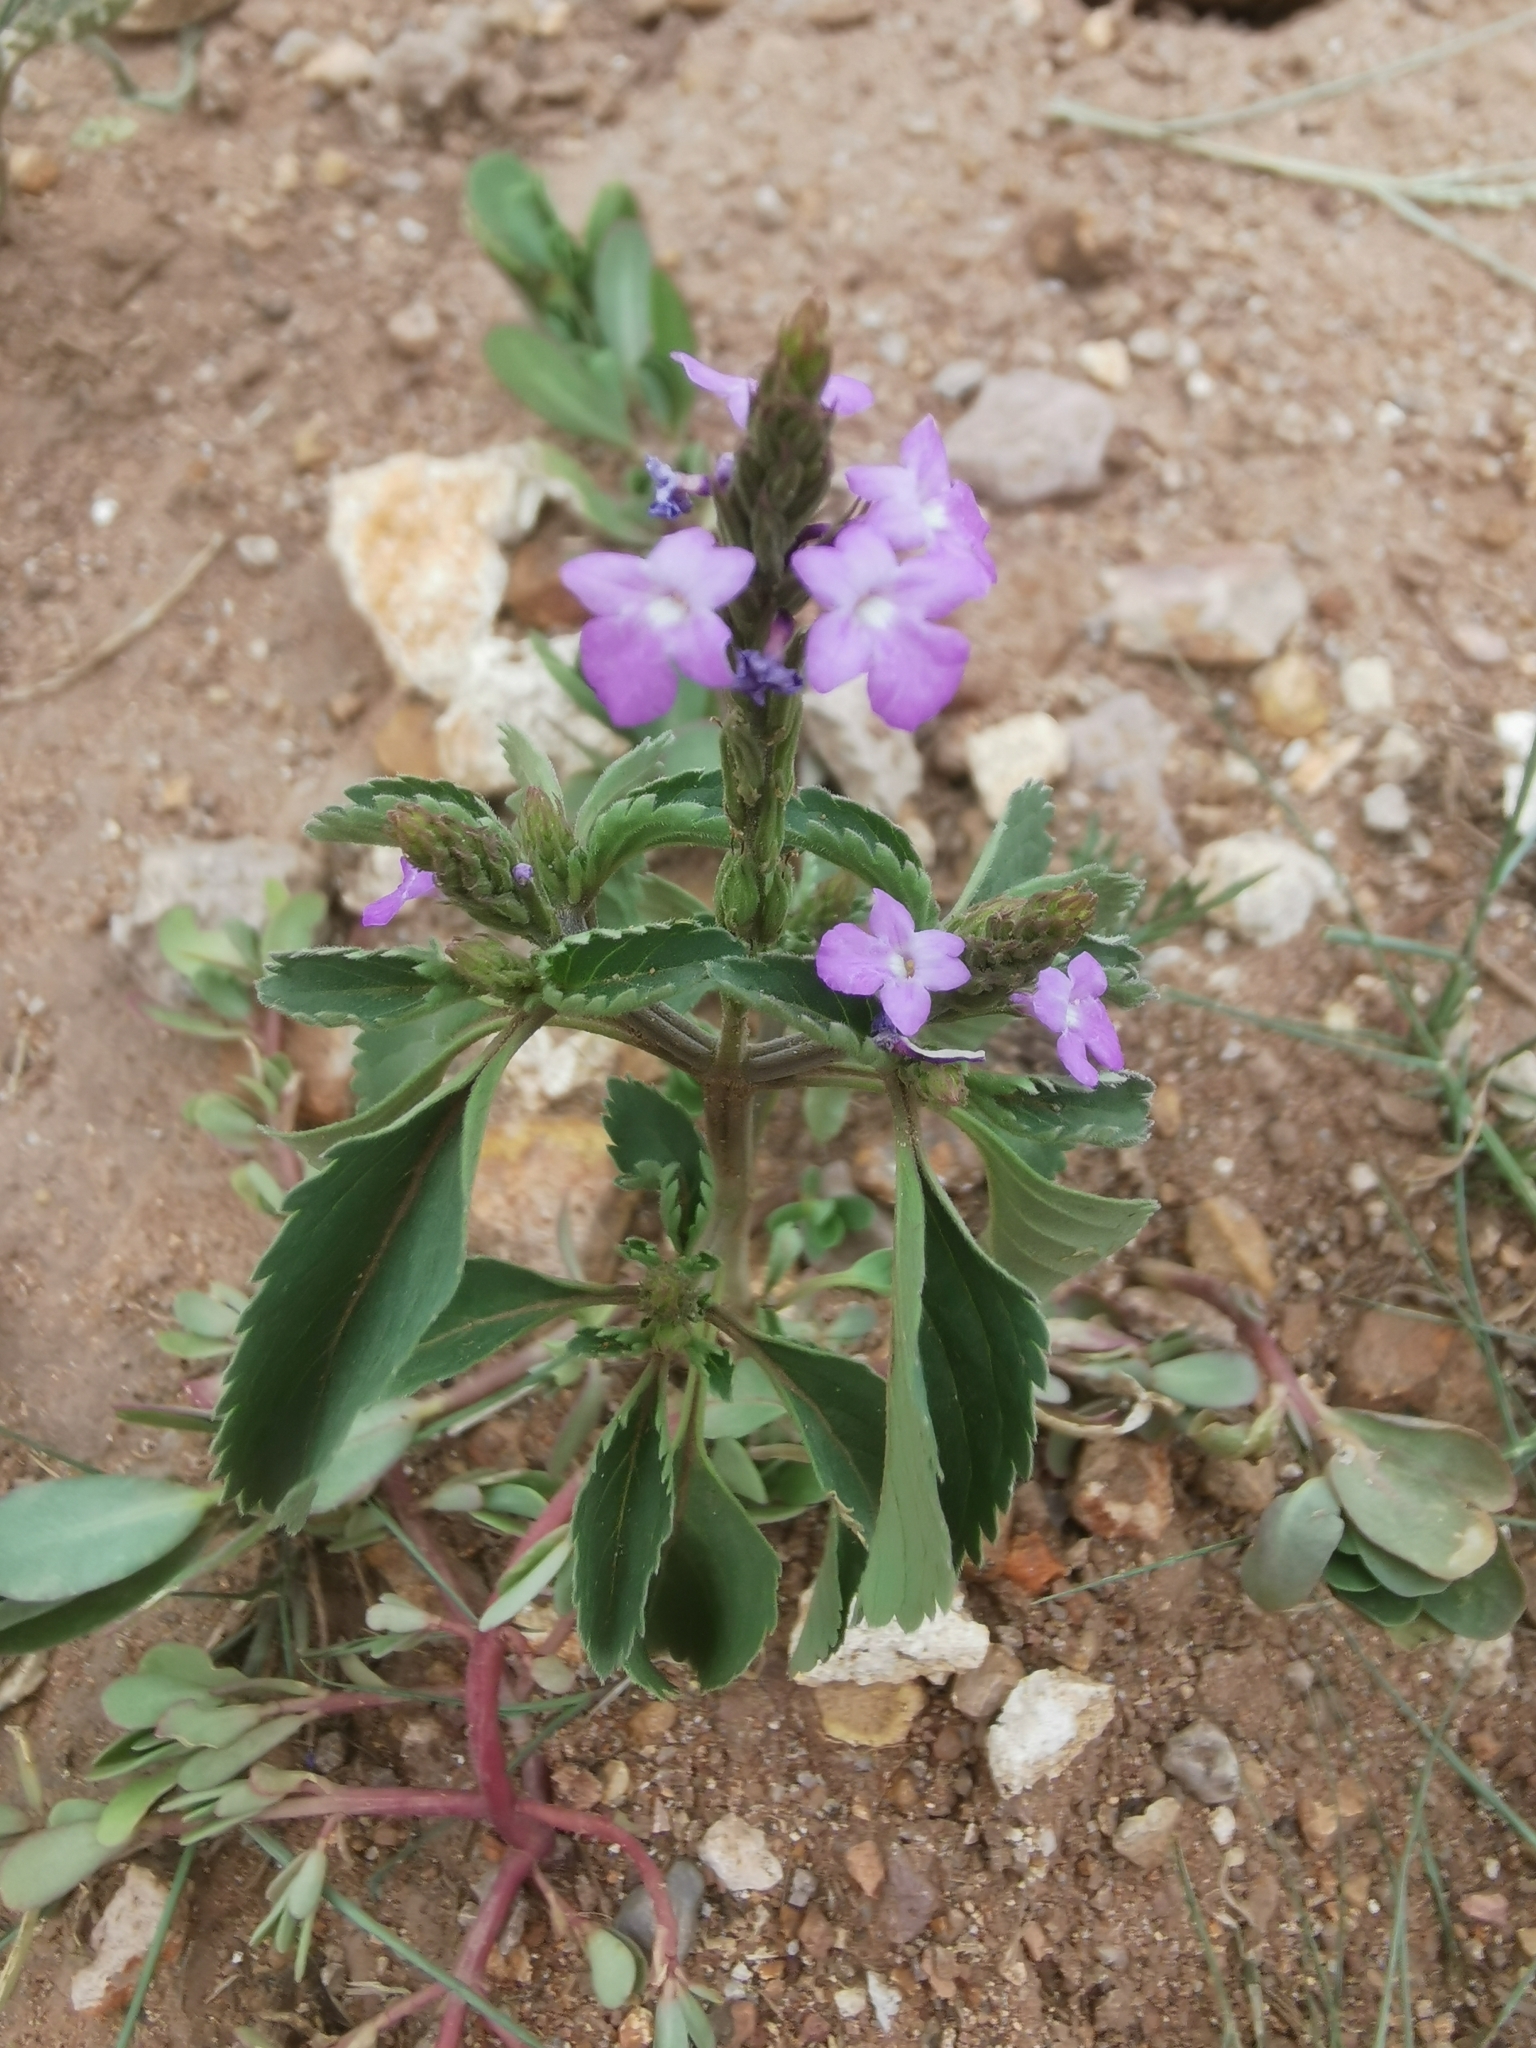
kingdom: Plantae
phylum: Tracheophyta
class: Magnoliopsida
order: Lamiales
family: Verbenaceae
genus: Bouchea
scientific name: Bouchea prismatica
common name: Vervine
